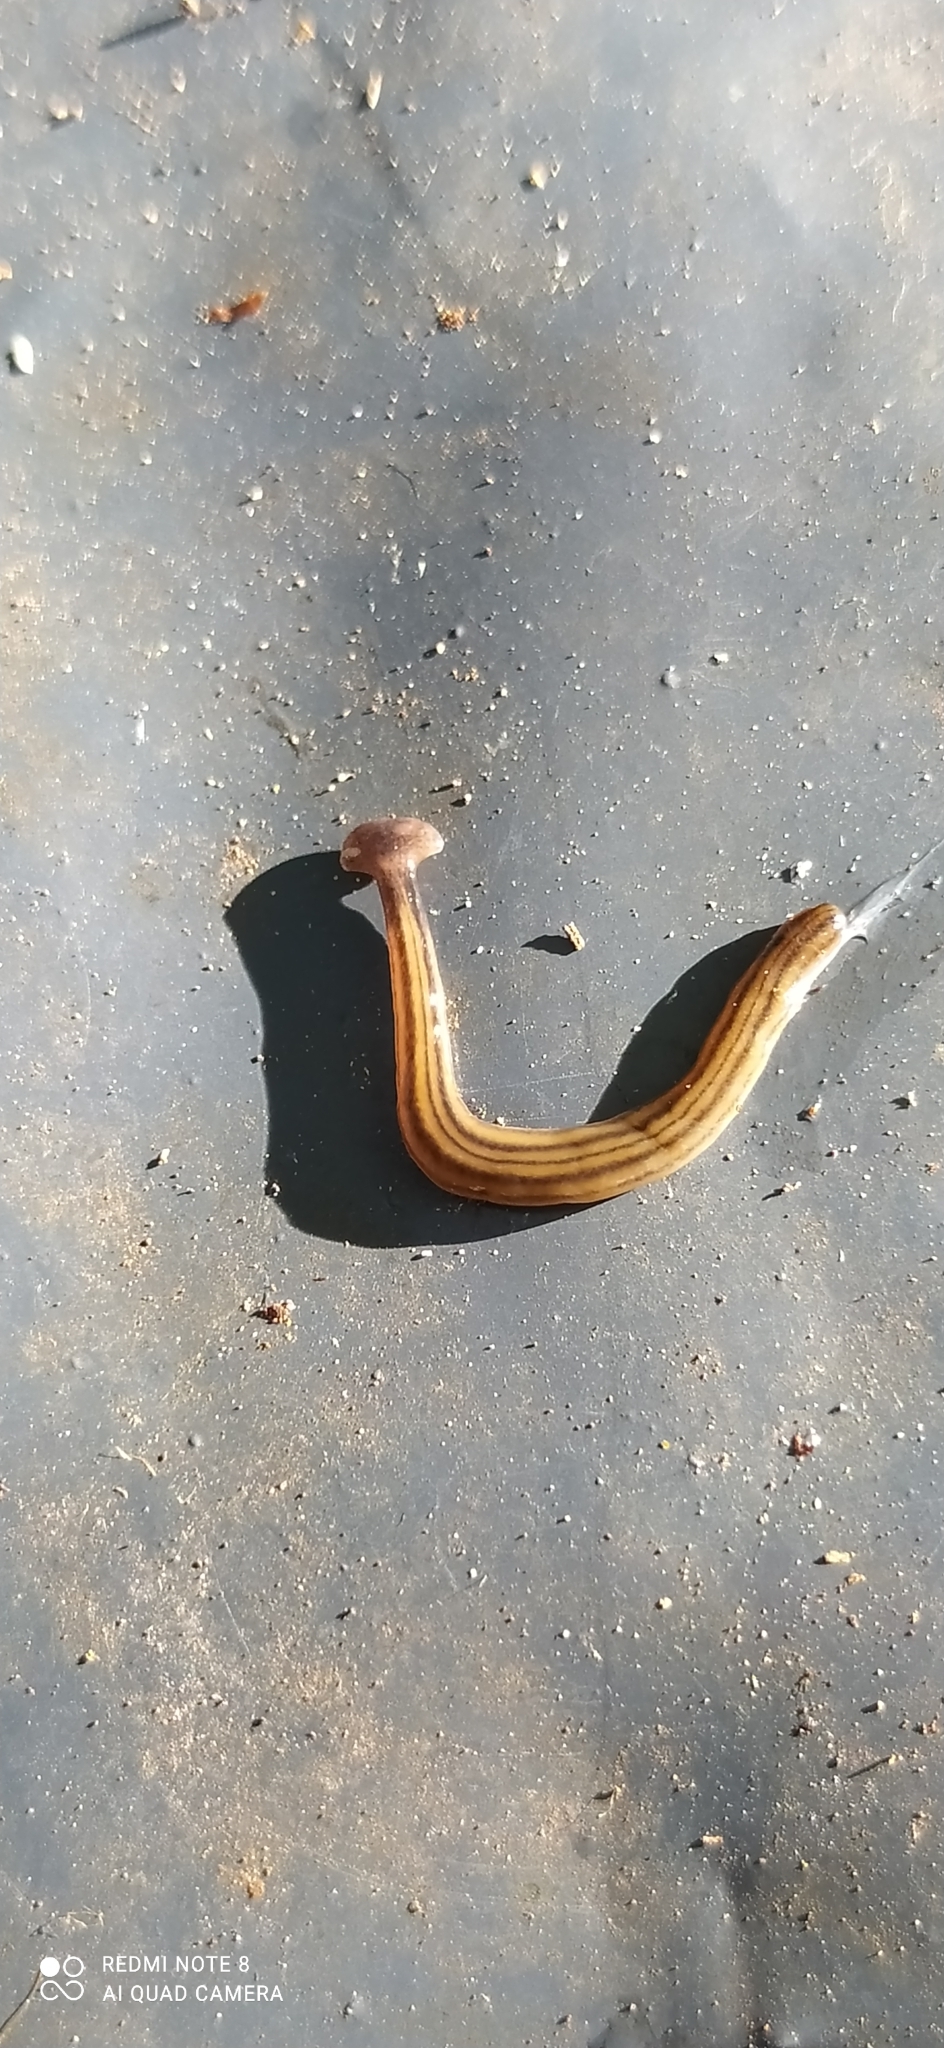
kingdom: Animalia
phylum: Platyhelminthes
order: Tricladida
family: Geoplanidae
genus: Bipalium
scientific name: Bipalium kewense
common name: Hammerhead flatworm
